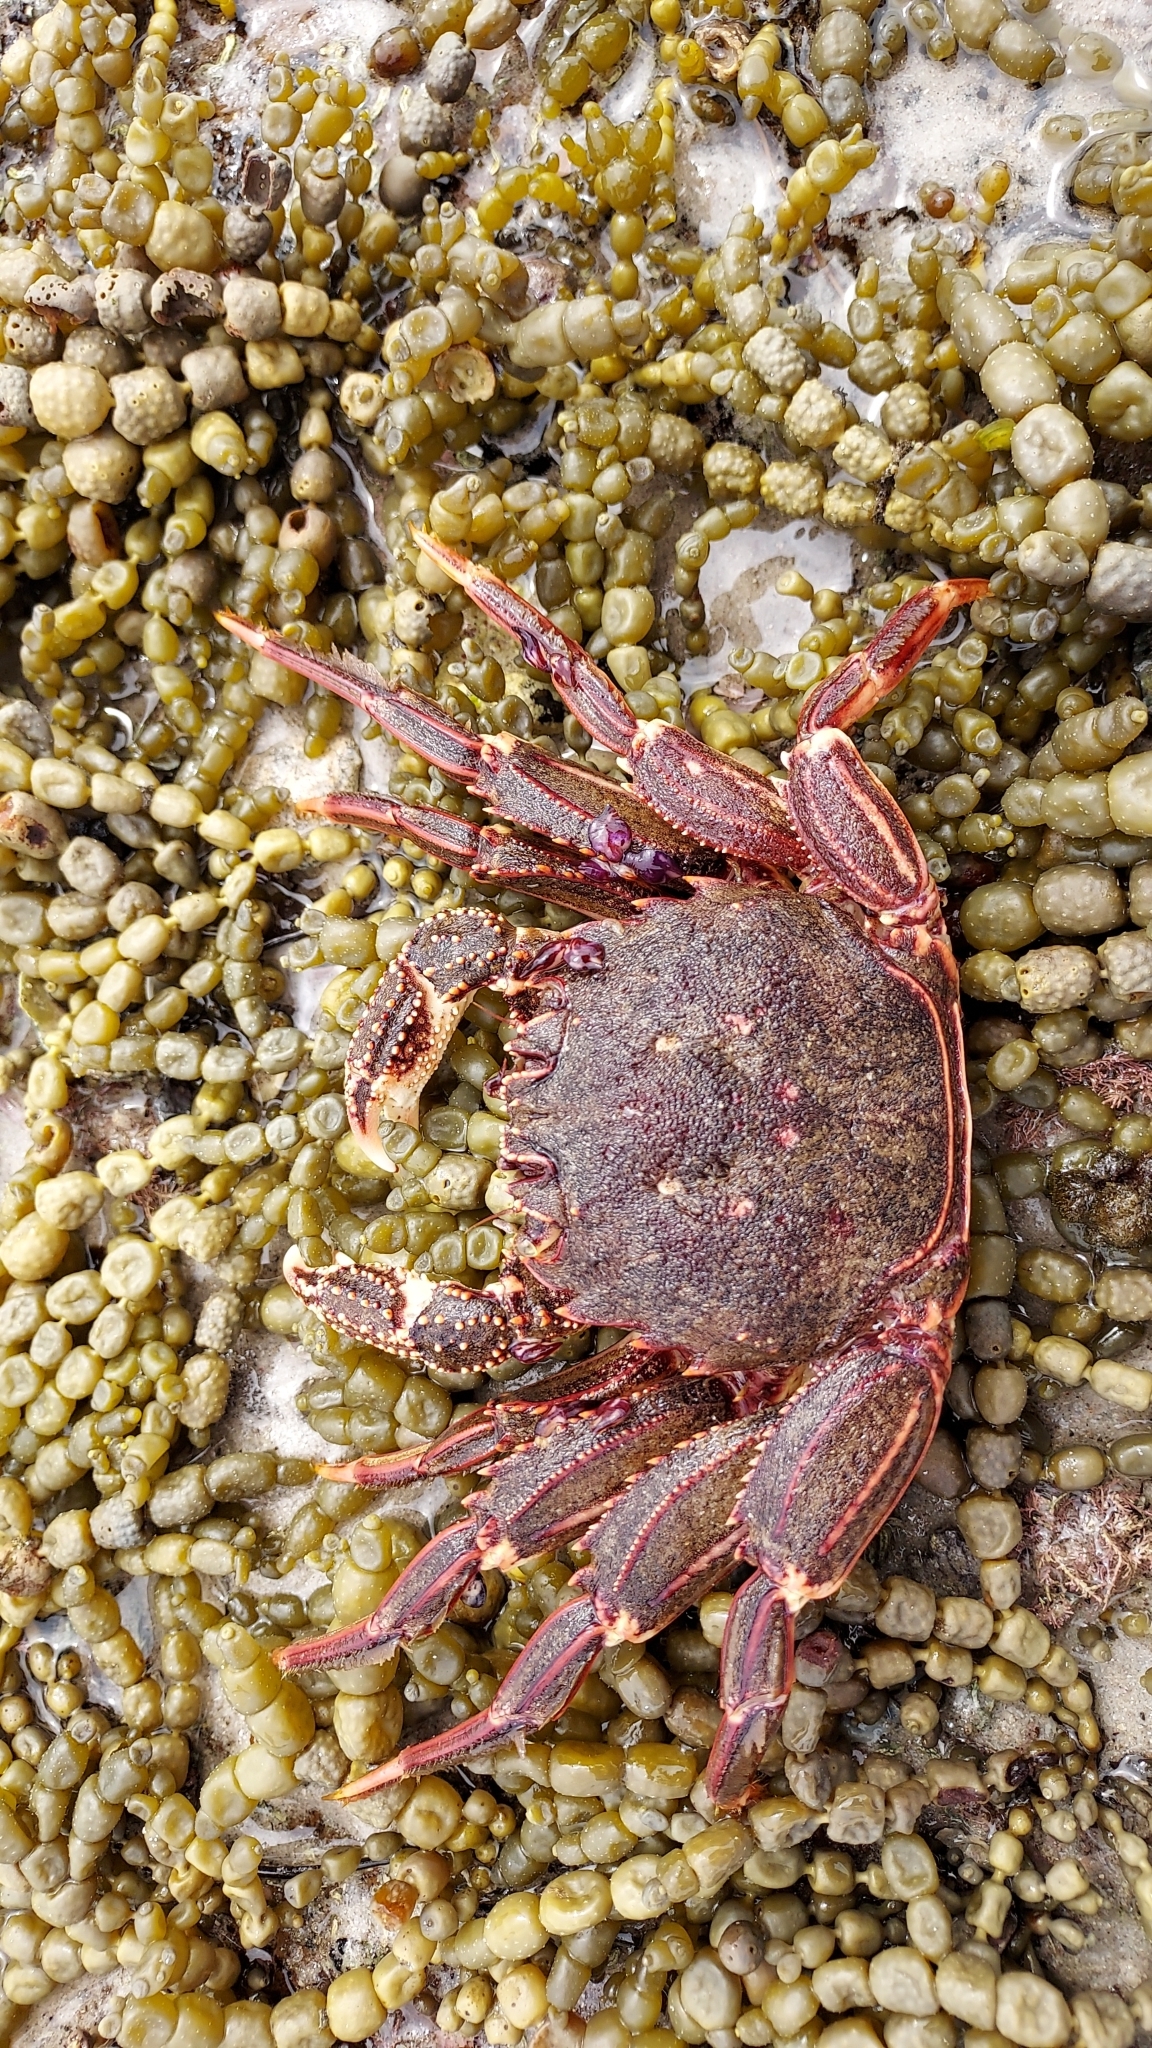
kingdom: Animalia
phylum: Arthropoda
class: Malacostraca
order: Decapoda
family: Plagusiidae
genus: Guinusia
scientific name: Guinusia chabrus
